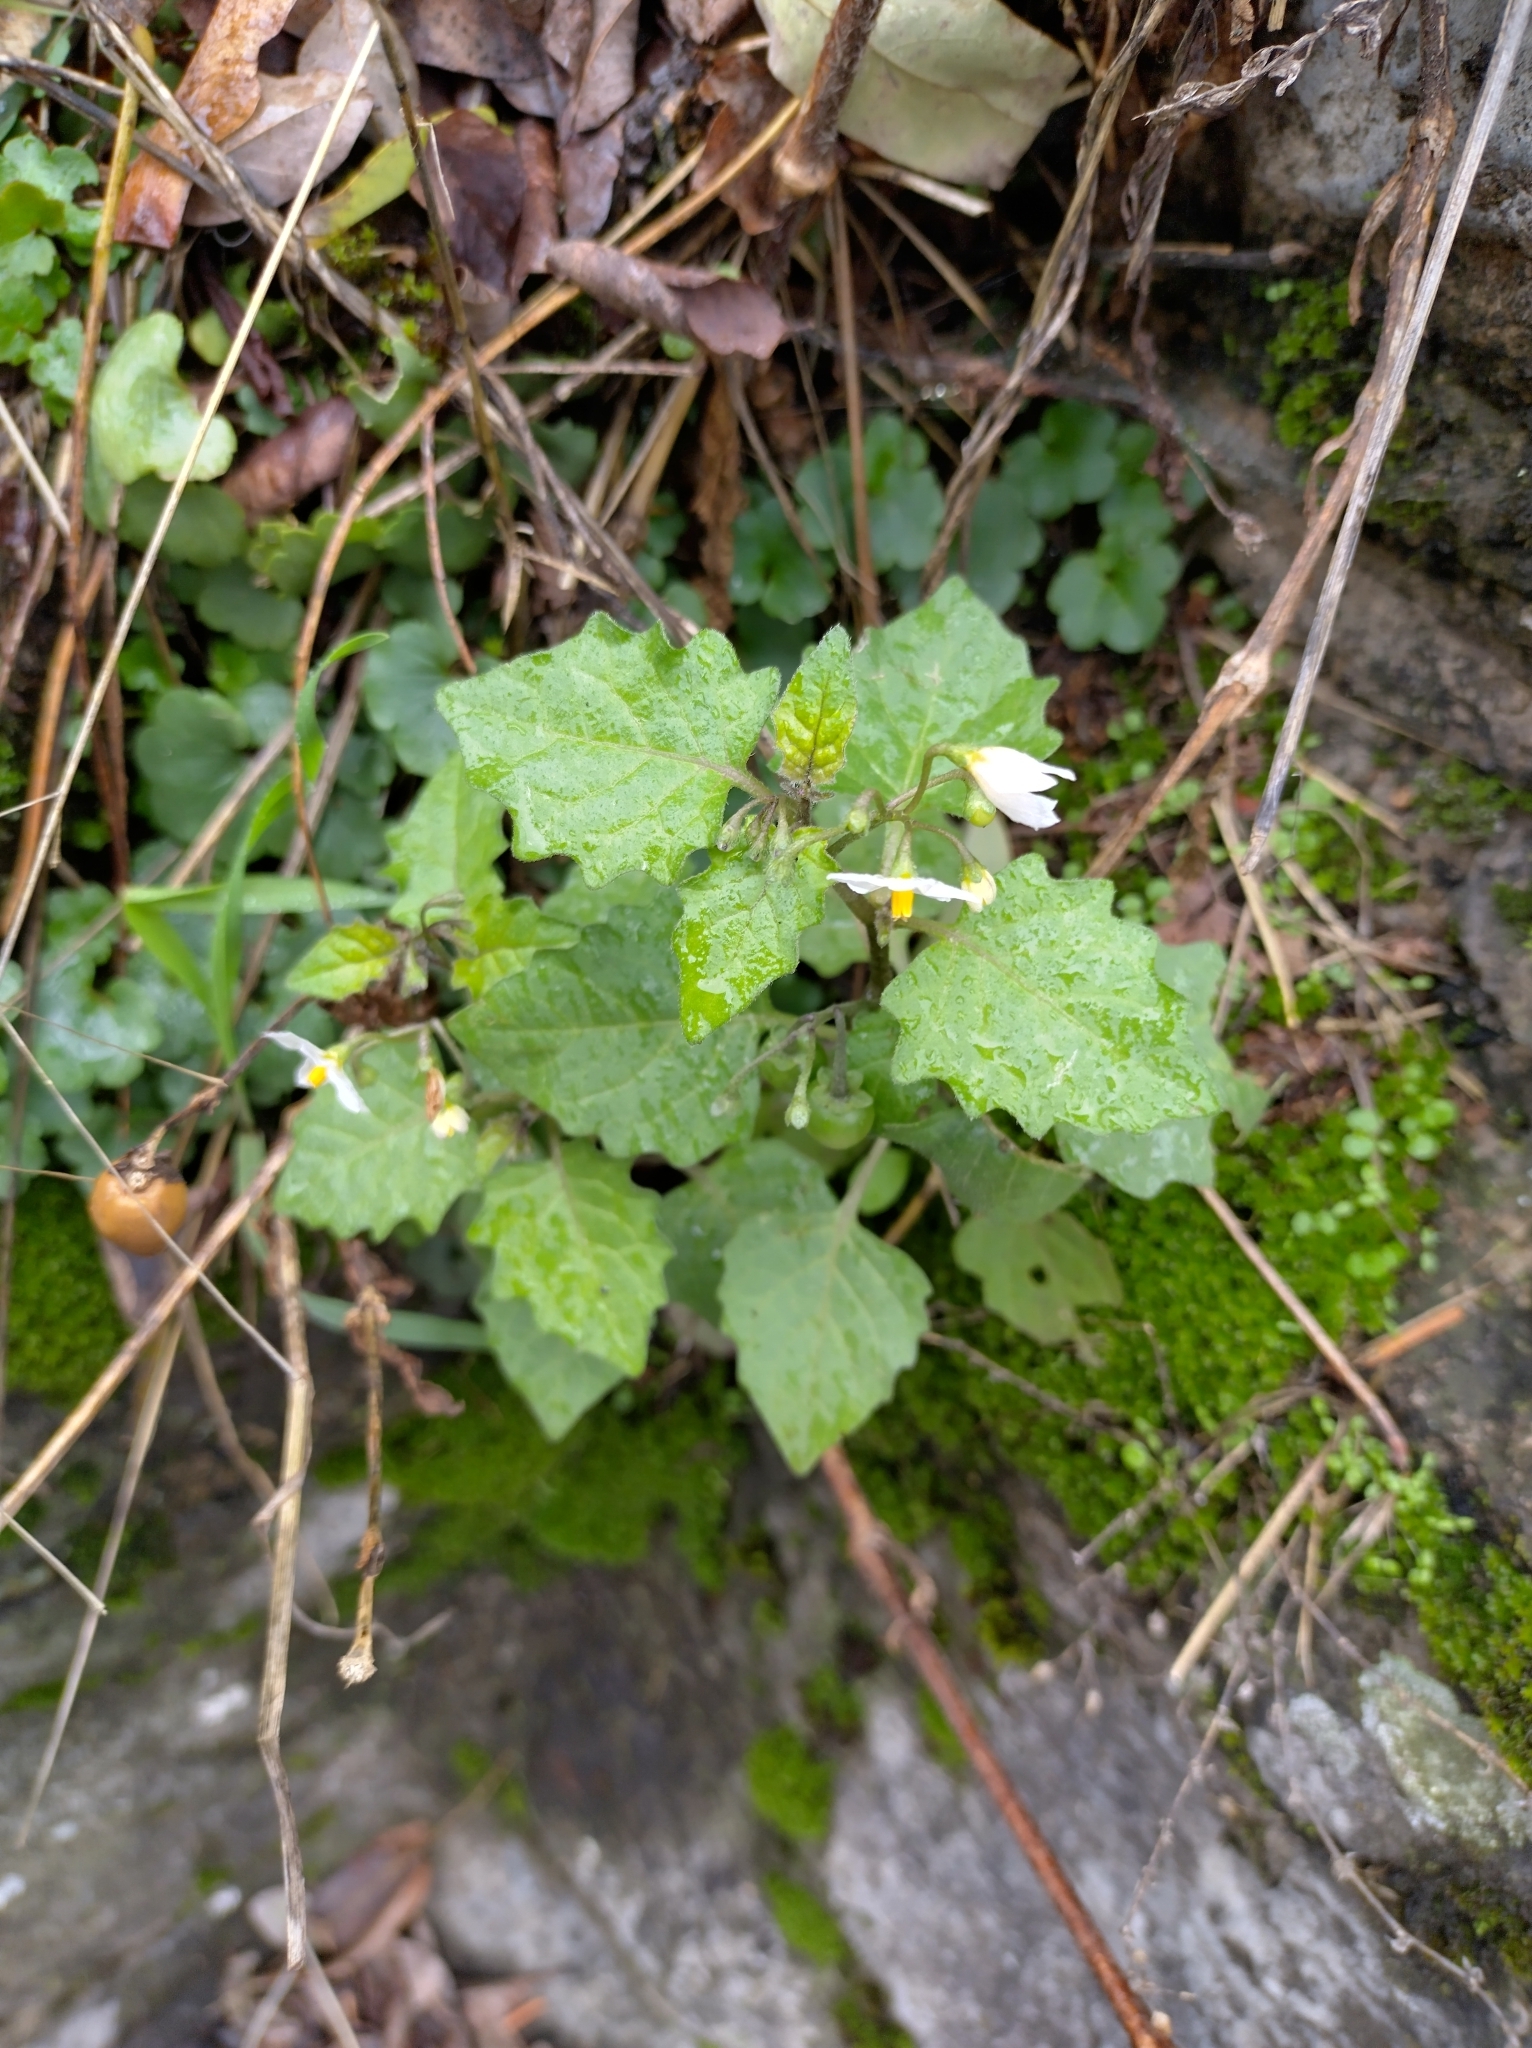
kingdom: Plantae
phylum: Tracheophyta
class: Magnoliopsida
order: Solanales
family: Solanaceae
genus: Solanum
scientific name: Solanum nigrum
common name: Black nightshade
